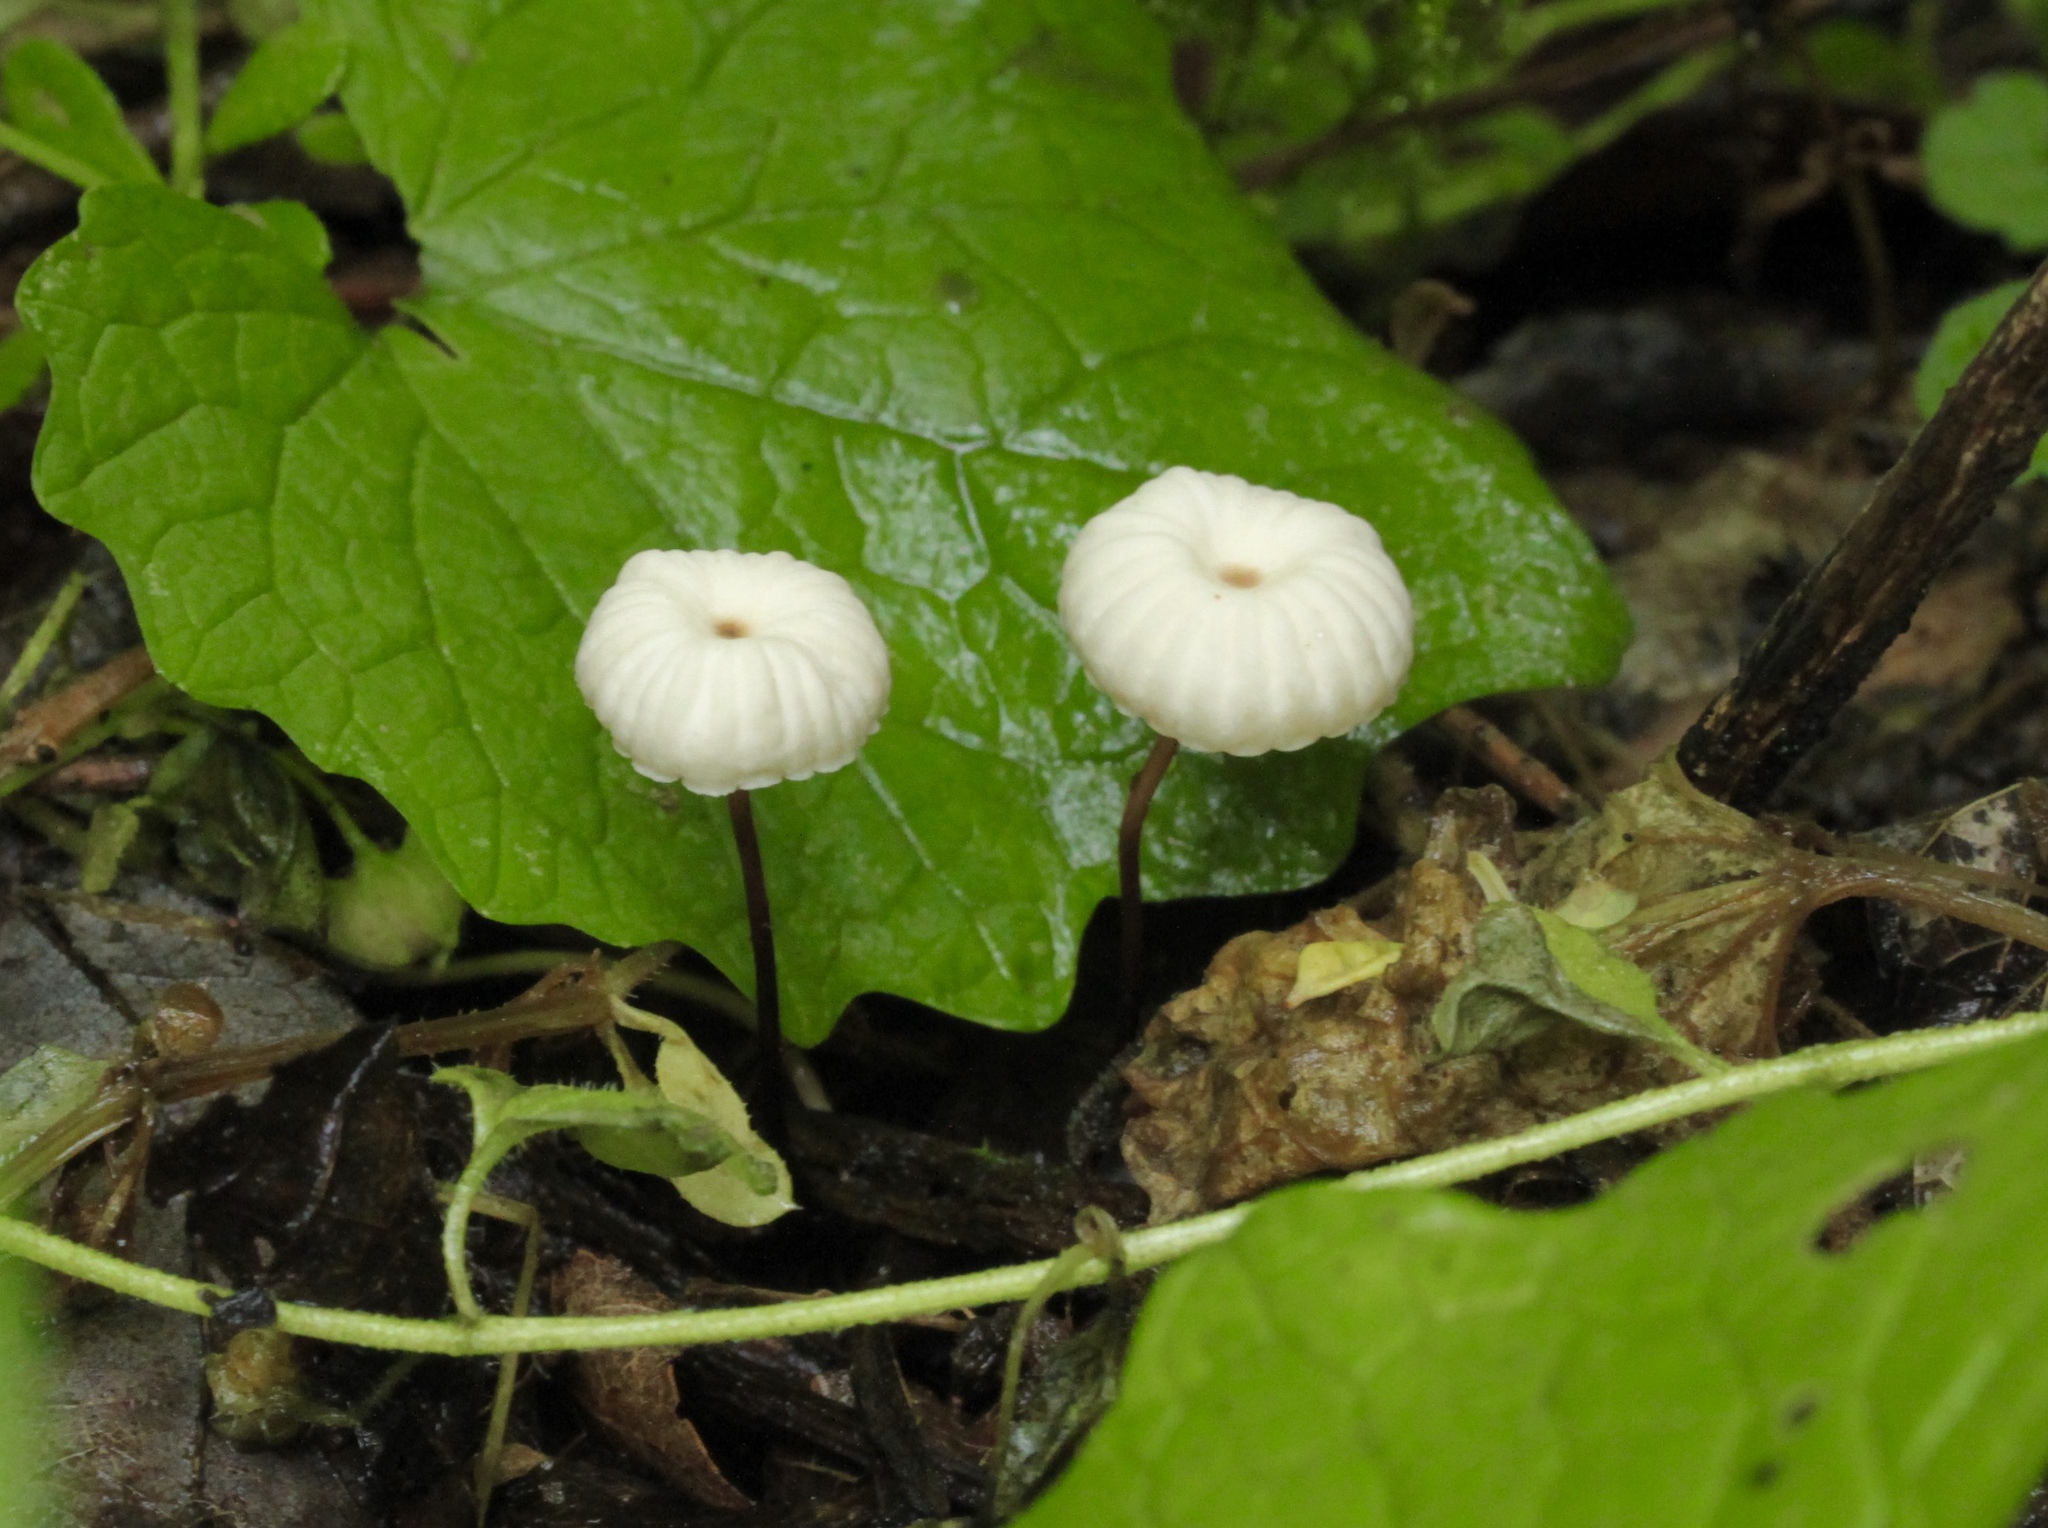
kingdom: Fungi
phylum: Basidiomycota
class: Agaricomycetes
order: Agaricales
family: Marasmiaceae
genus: Marasmius
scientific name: Marasmius rotula
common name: Collared parachute
